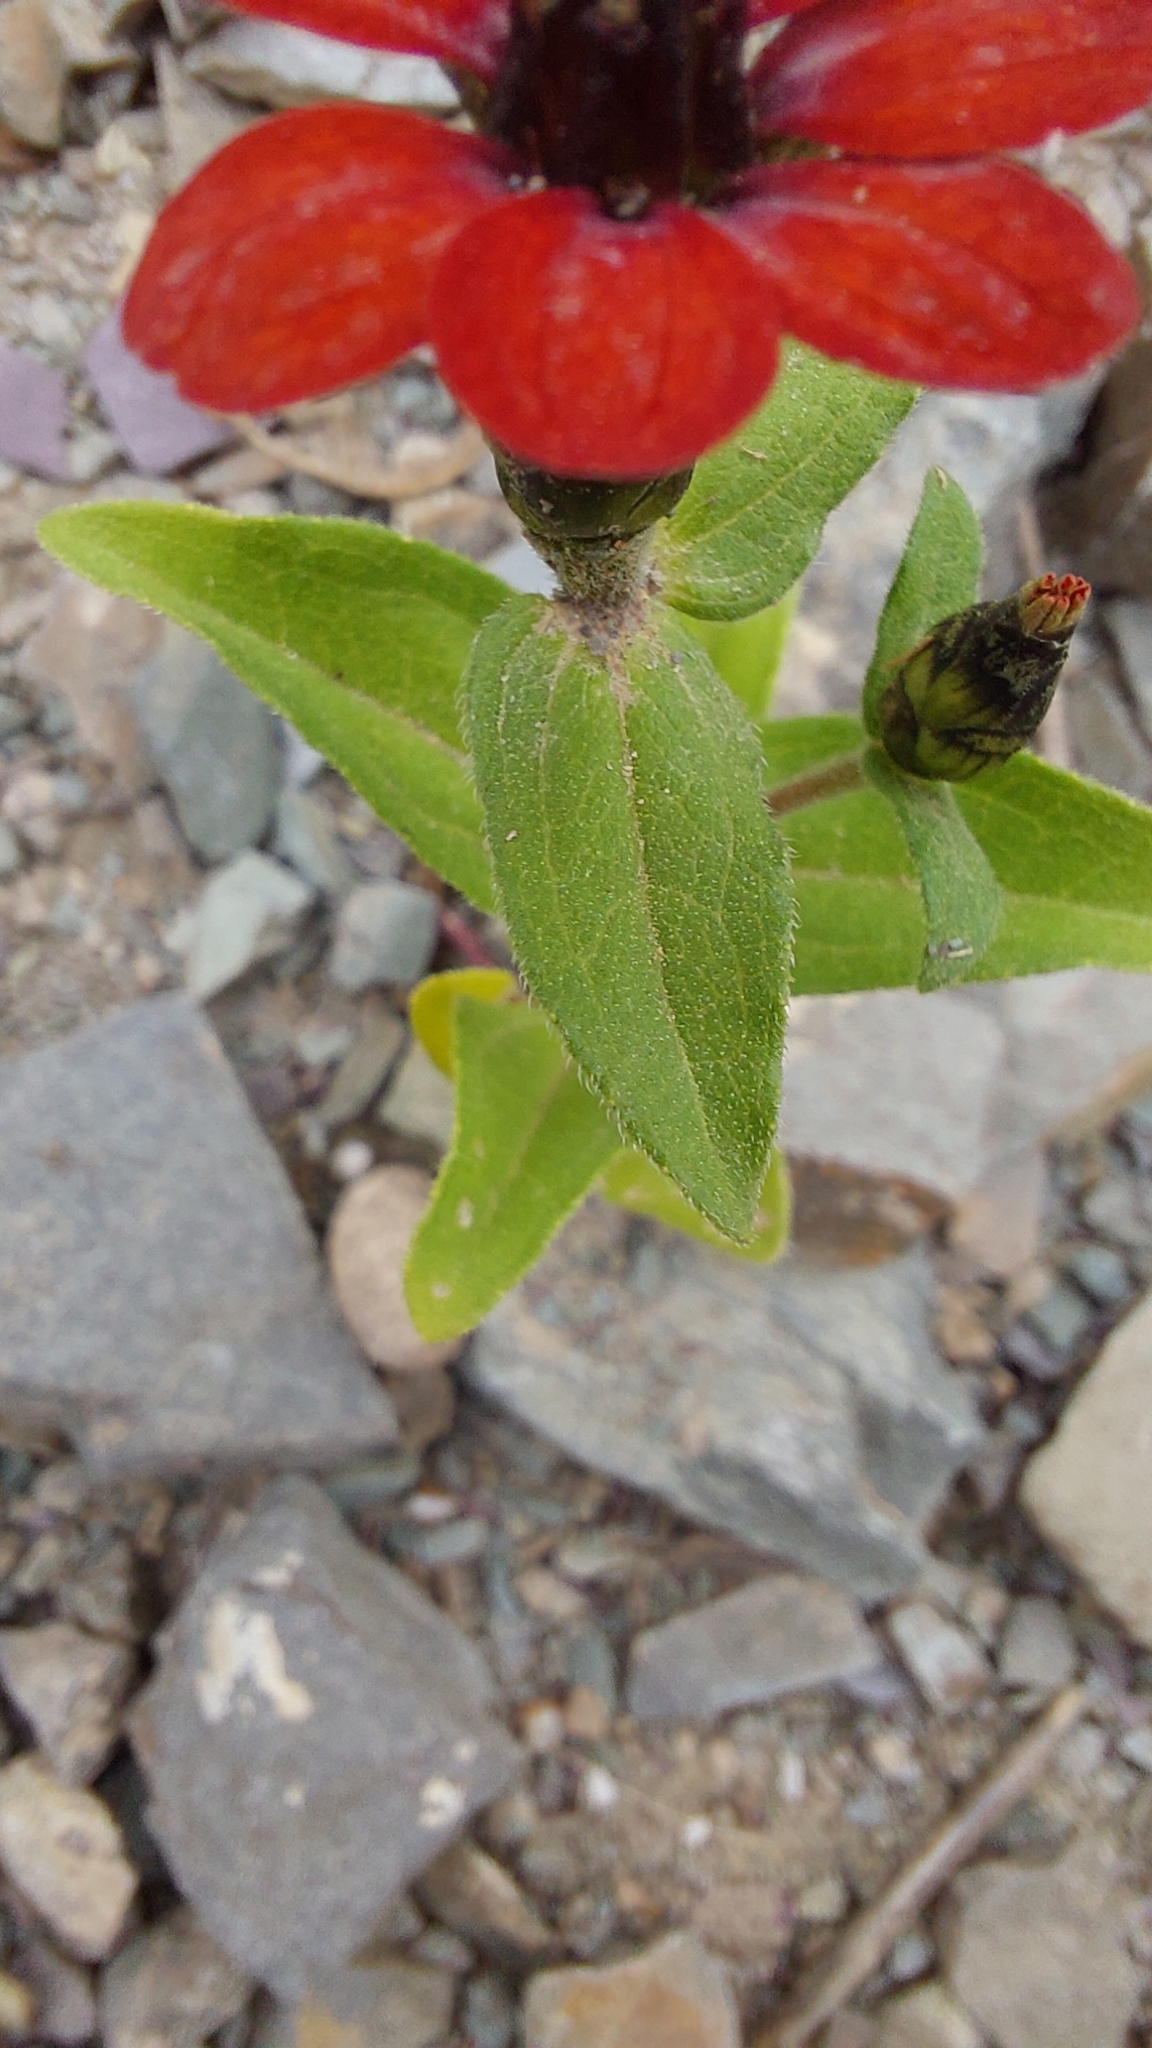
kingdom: Plantae
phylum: Tracheophyta
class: Magnoliopsida
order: Asterales
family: Asteraceae
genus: Zinnia
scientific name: Zinnia peruviana
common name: Peruvian zinnia
